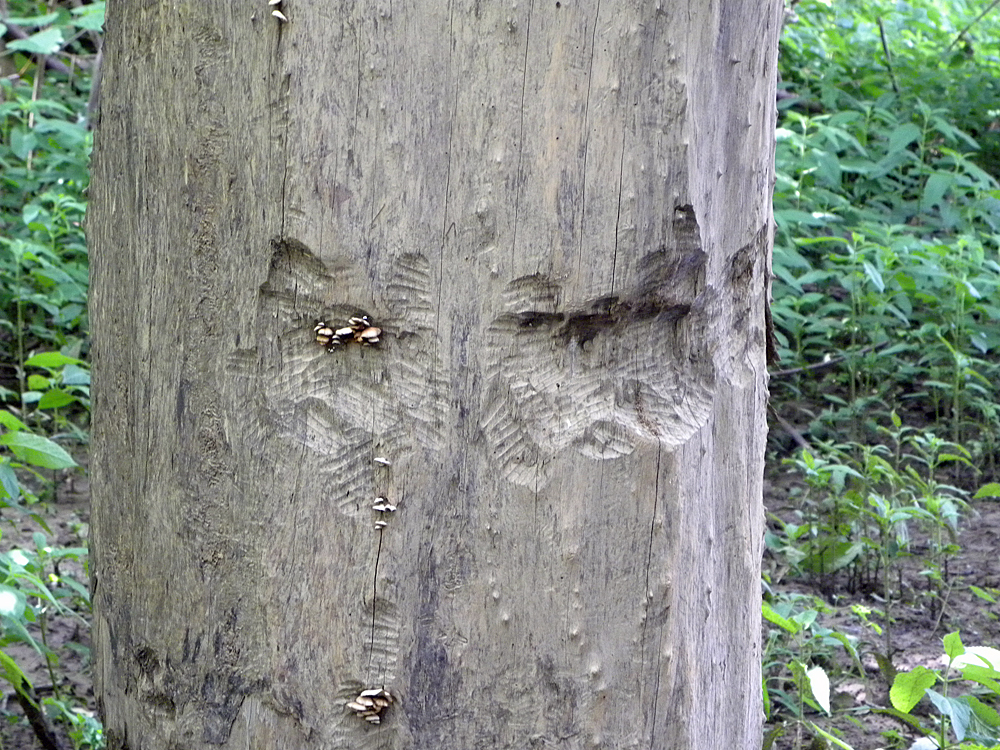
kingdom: Animalia
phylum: Chordata
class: Mammalia
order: Rodentia
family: Castoridae
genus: Castor
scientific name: Castor canadensis
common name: American beaver
